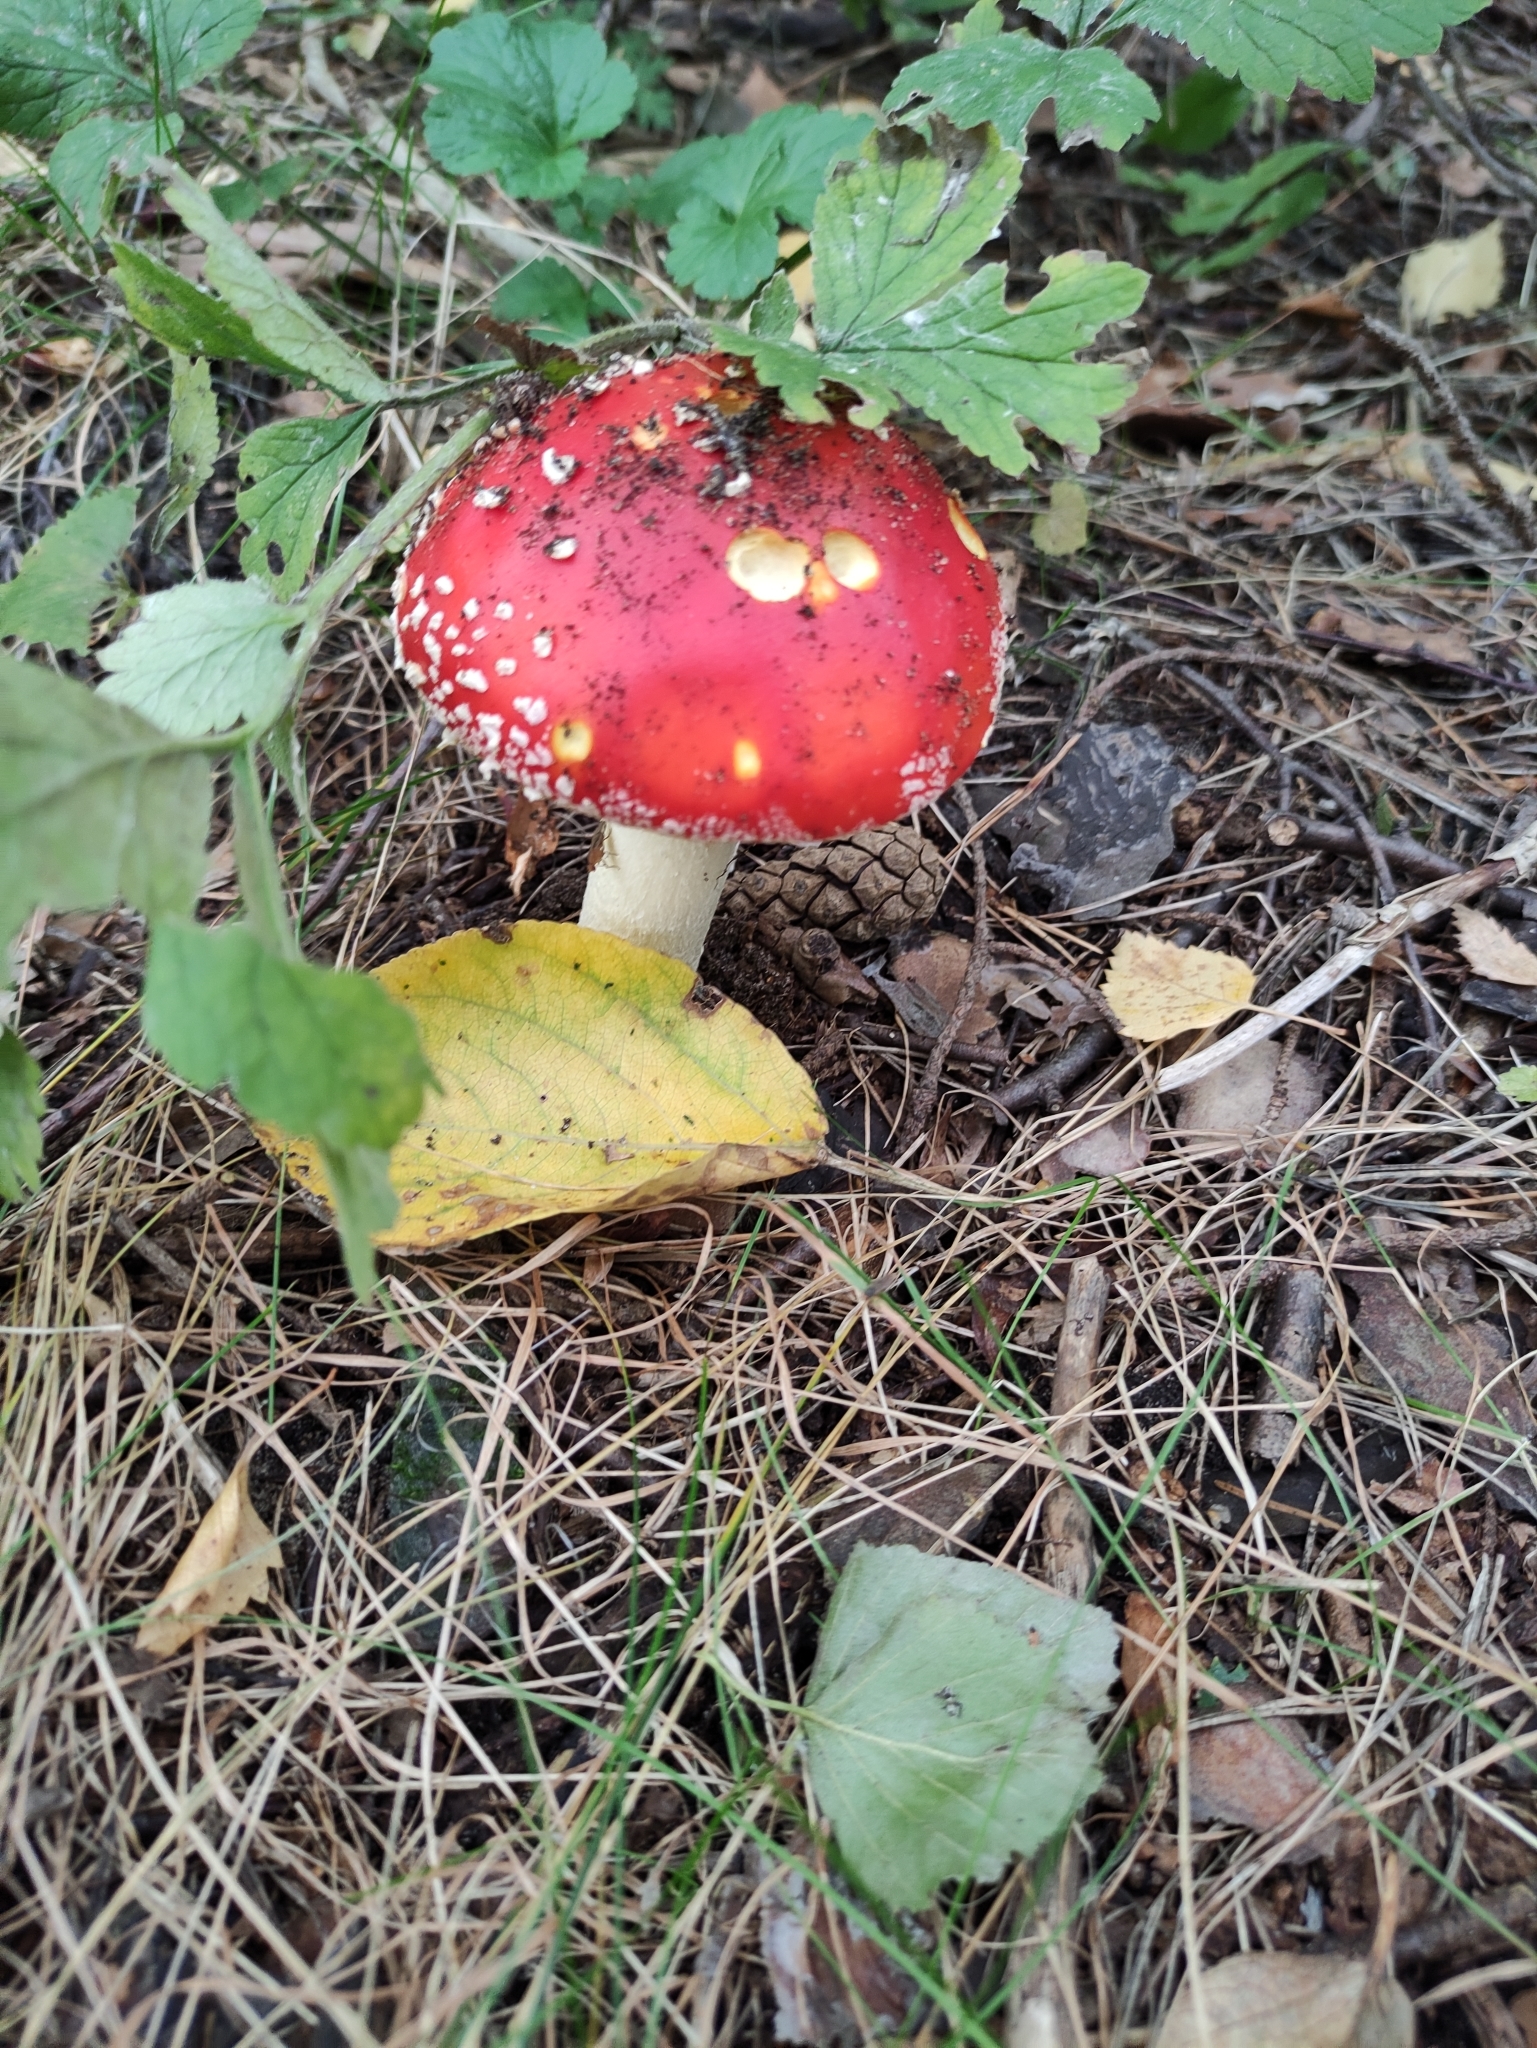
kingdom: Fungi
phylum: Basidiomycota
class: Agaricomycetes
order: Agaricales
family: Amanitaceae
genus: Amanita
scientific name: Amanita muscaria
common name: Fly agaric
